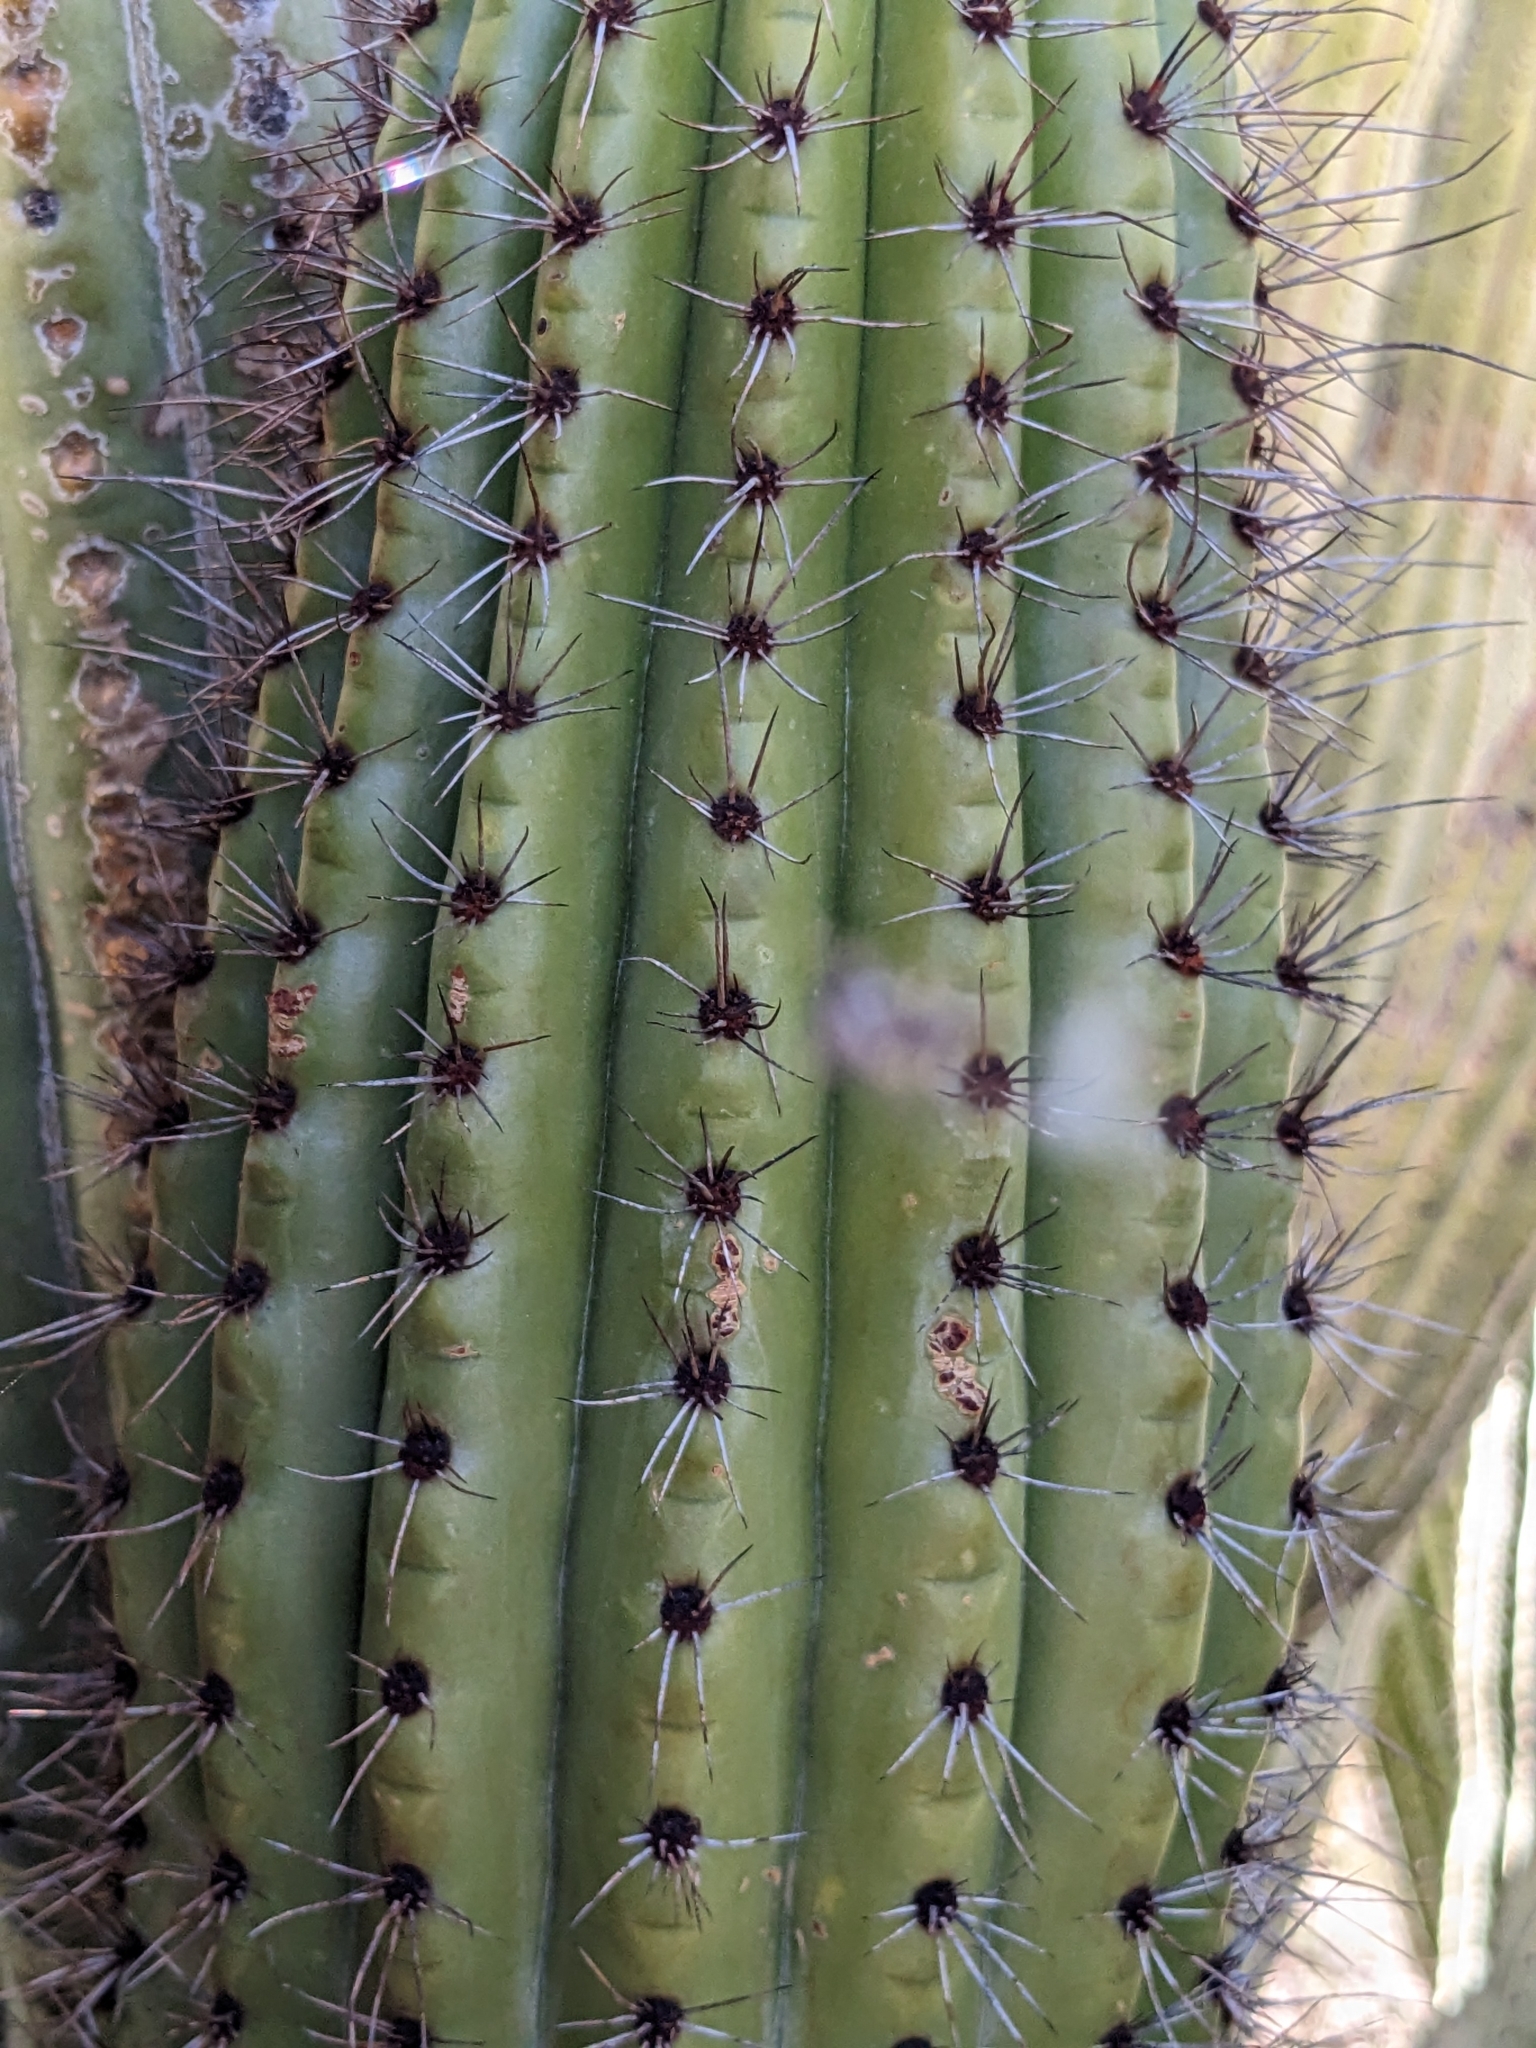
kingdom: Plantae
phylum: Tracheophyta
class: Magnoliopsida
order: Caryophyllales
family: Cactaceae
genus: Stenocereus
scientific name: Stenocereus thurberi
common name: Organ pipe cactus
